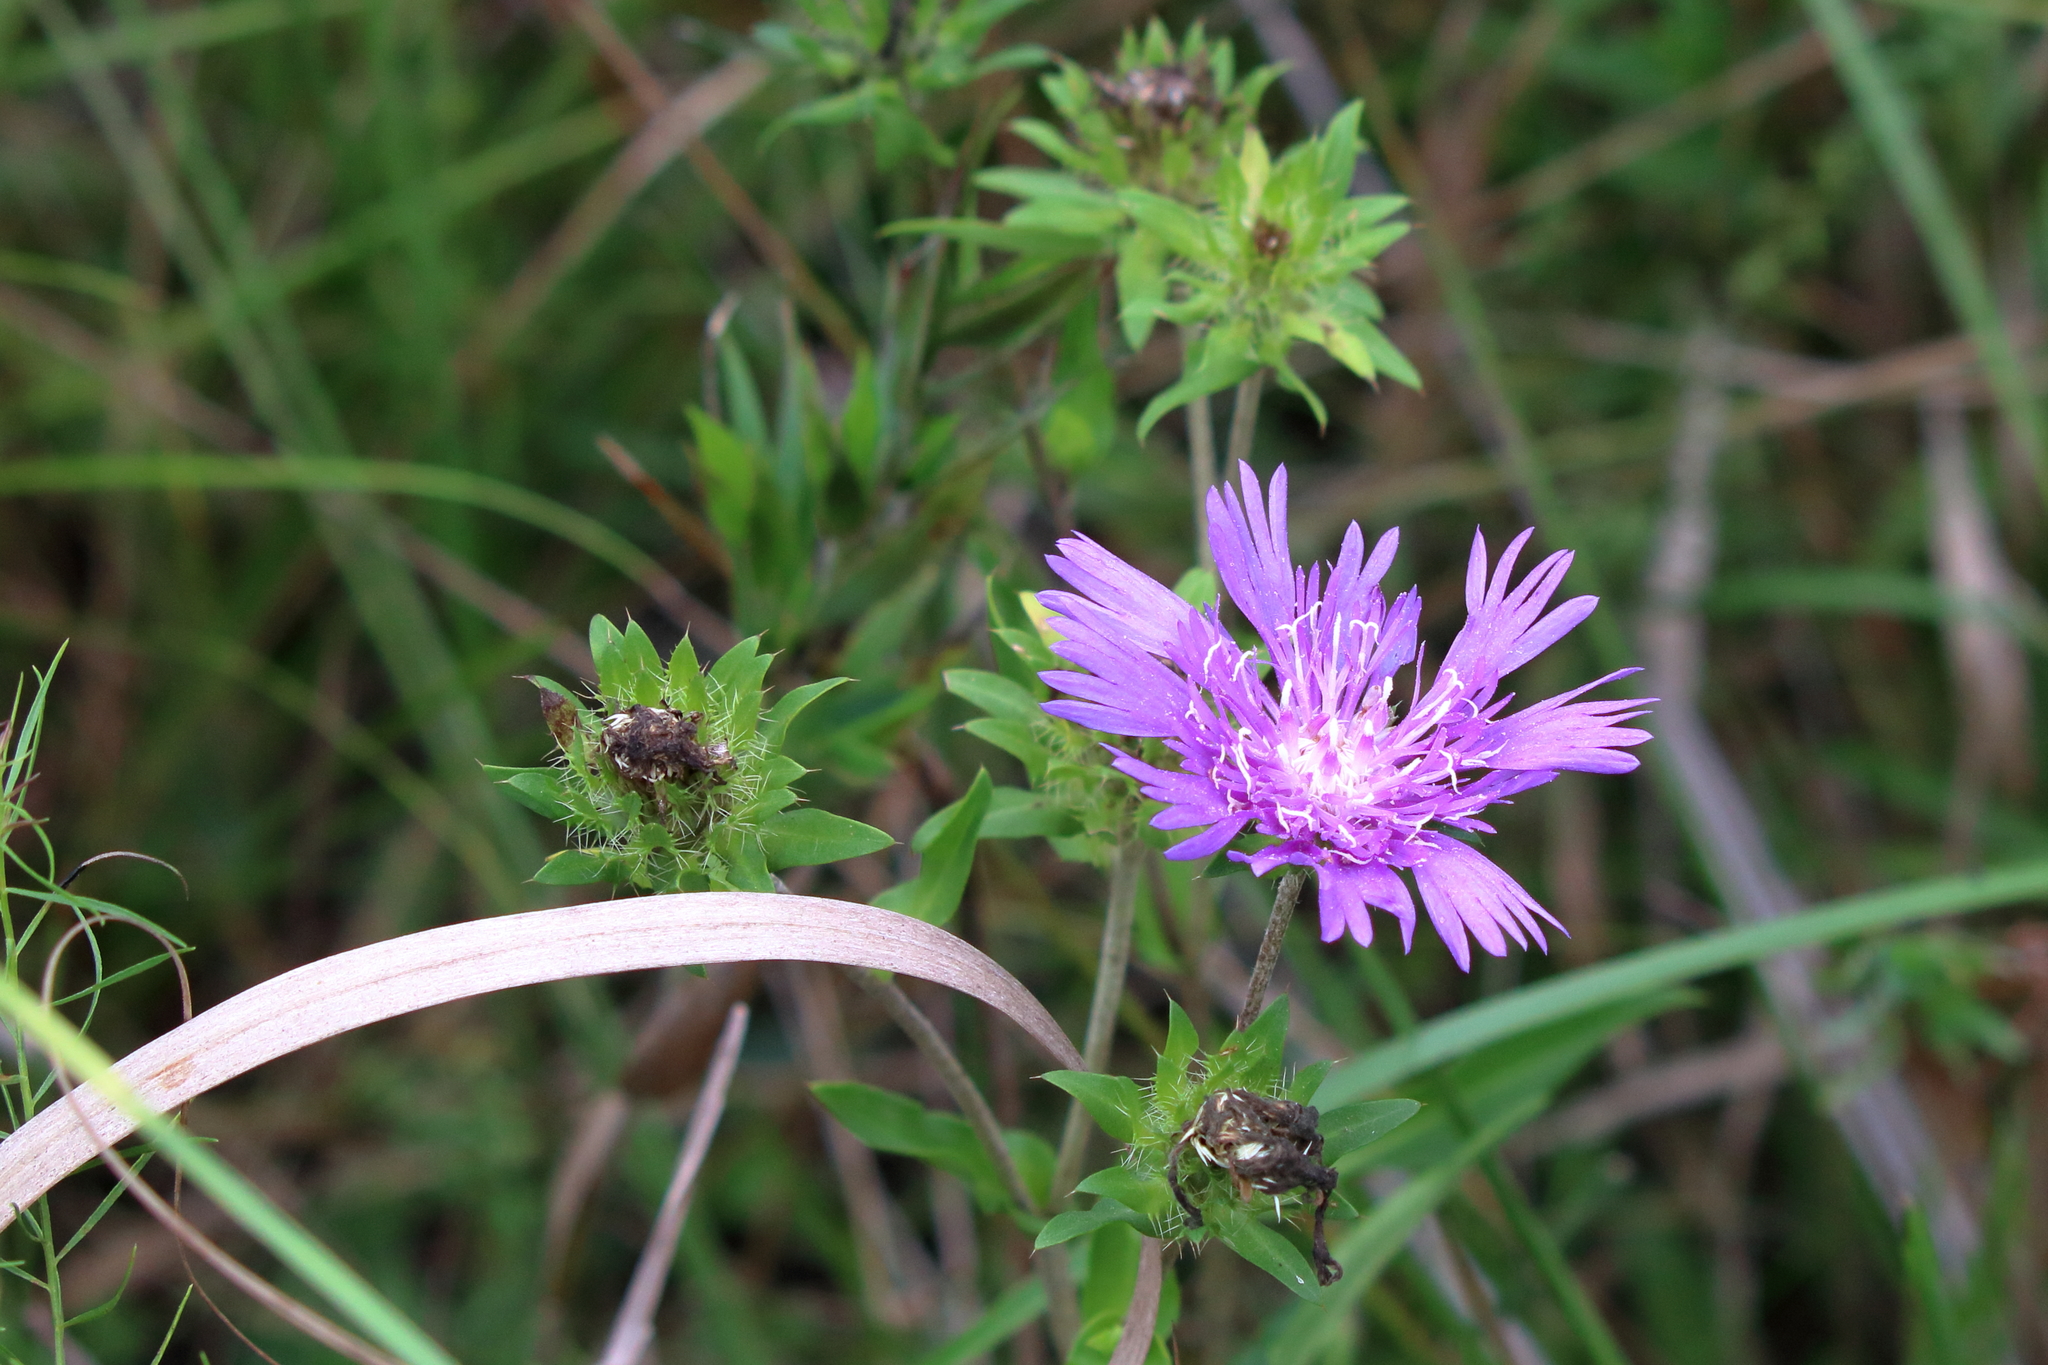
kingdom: Plantae
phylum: Tracheophyta
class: Magnoliopsida
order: Asterales
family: Asteraceae
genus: Stokesia
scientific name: Stokesia laevis
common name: Stokes'-aster
